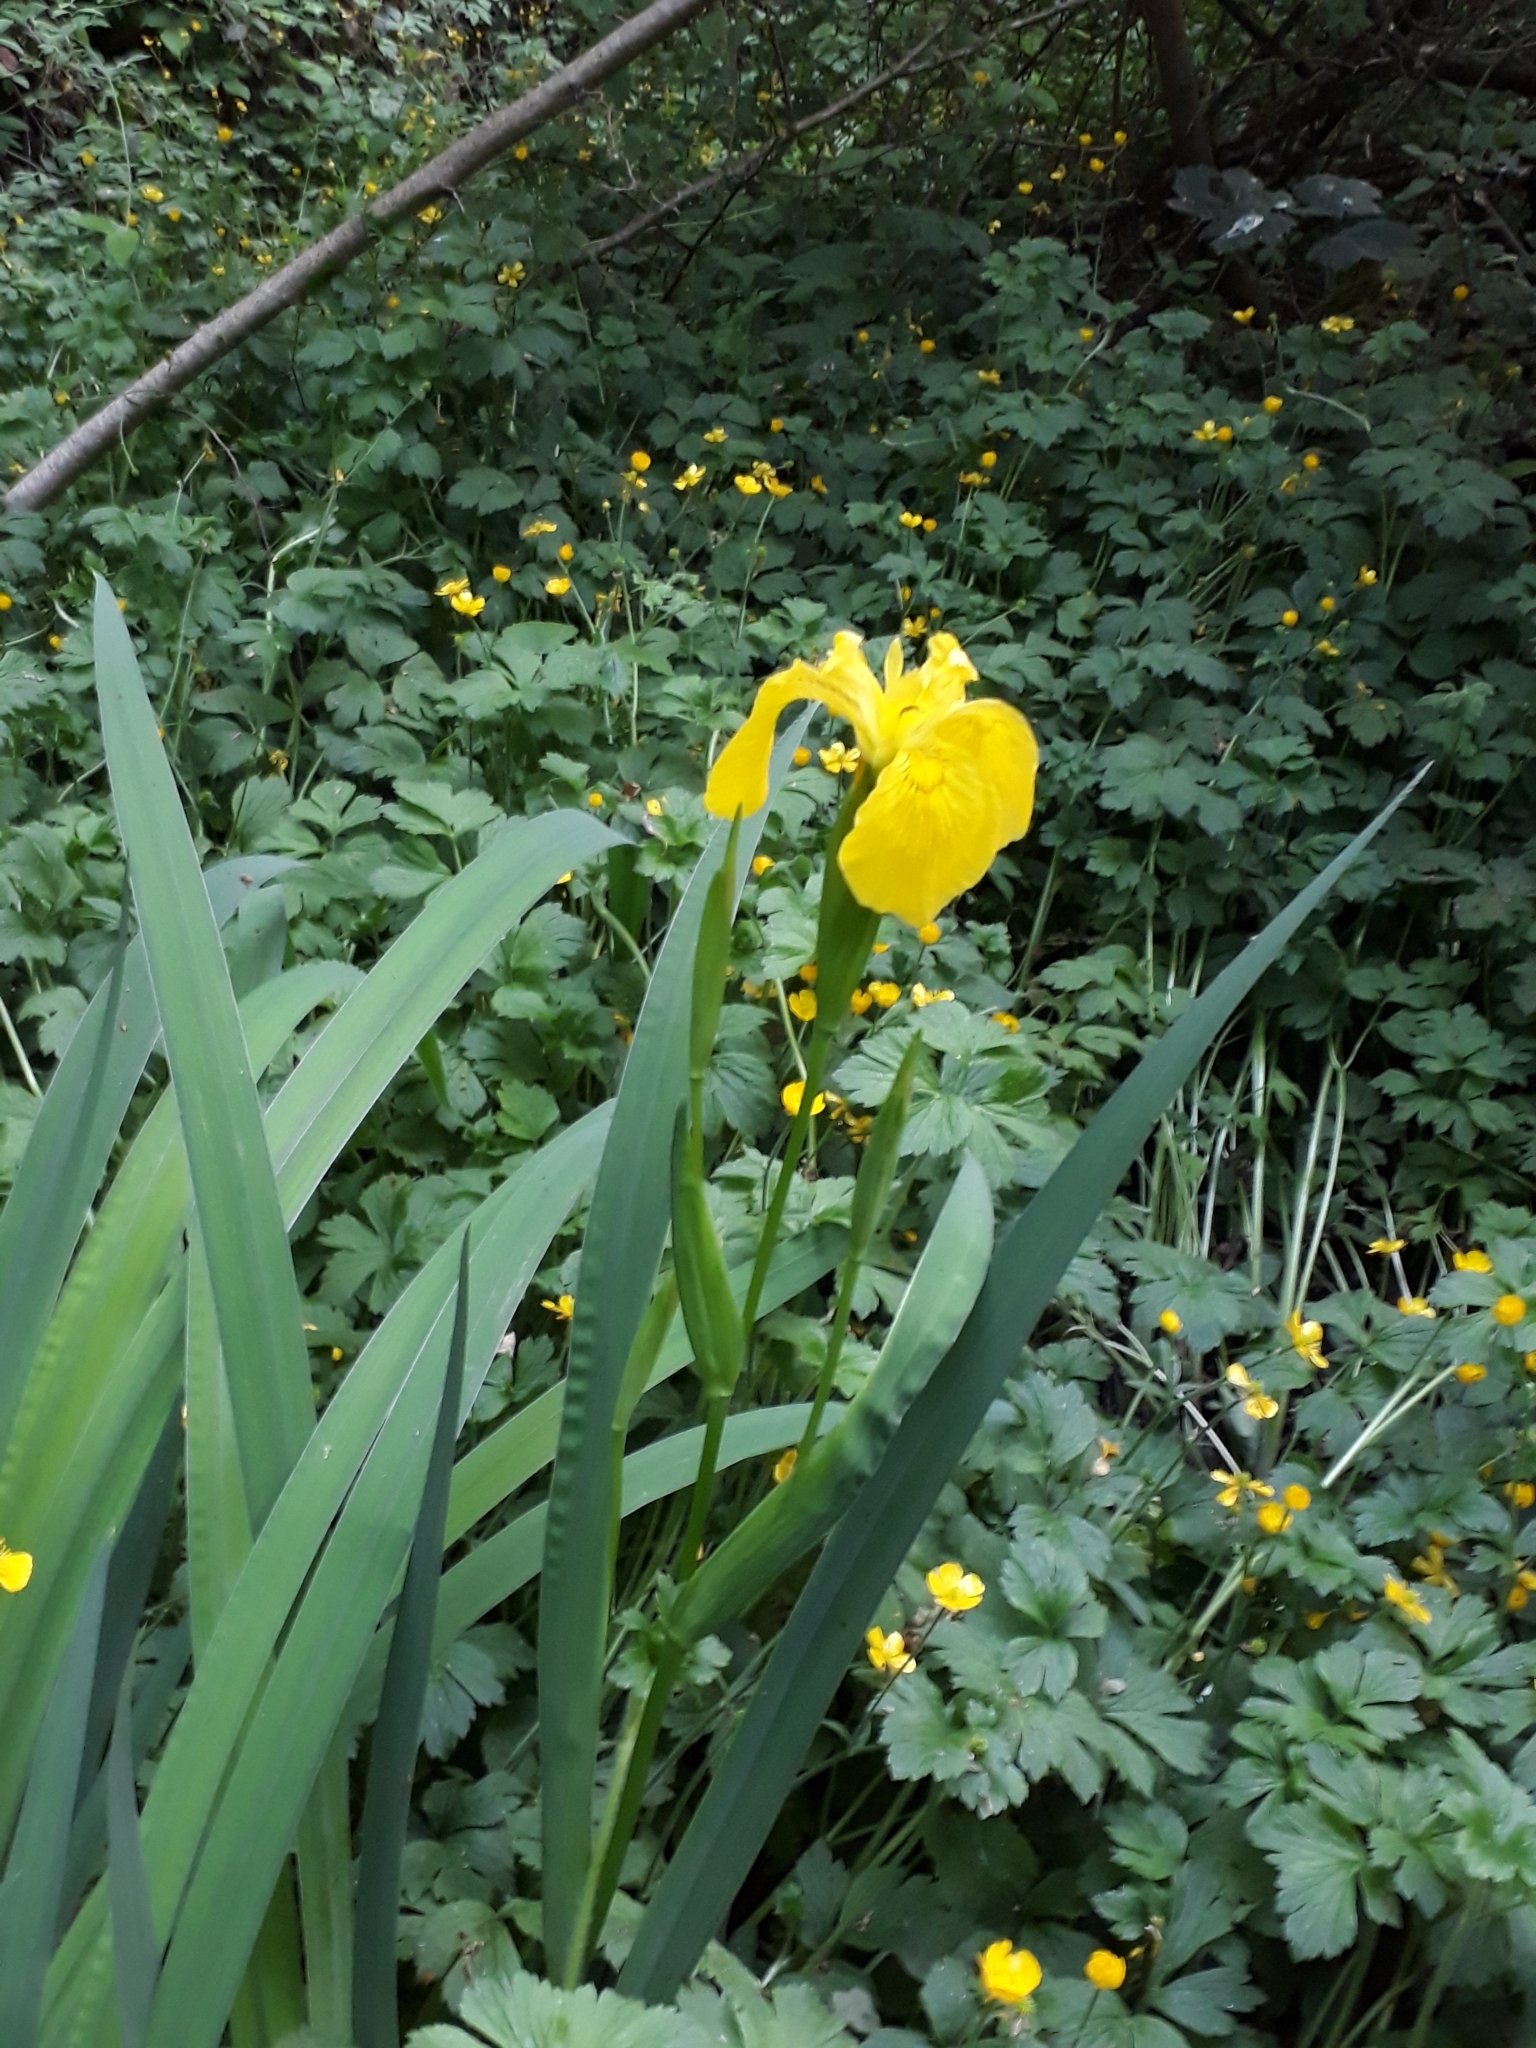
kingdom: Plantae
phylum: Tracheophyta
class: Liliopsida
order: Asparagales
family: Iridaceae
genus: Iris
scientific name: Iris pseudacorus
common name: Yellow flag
